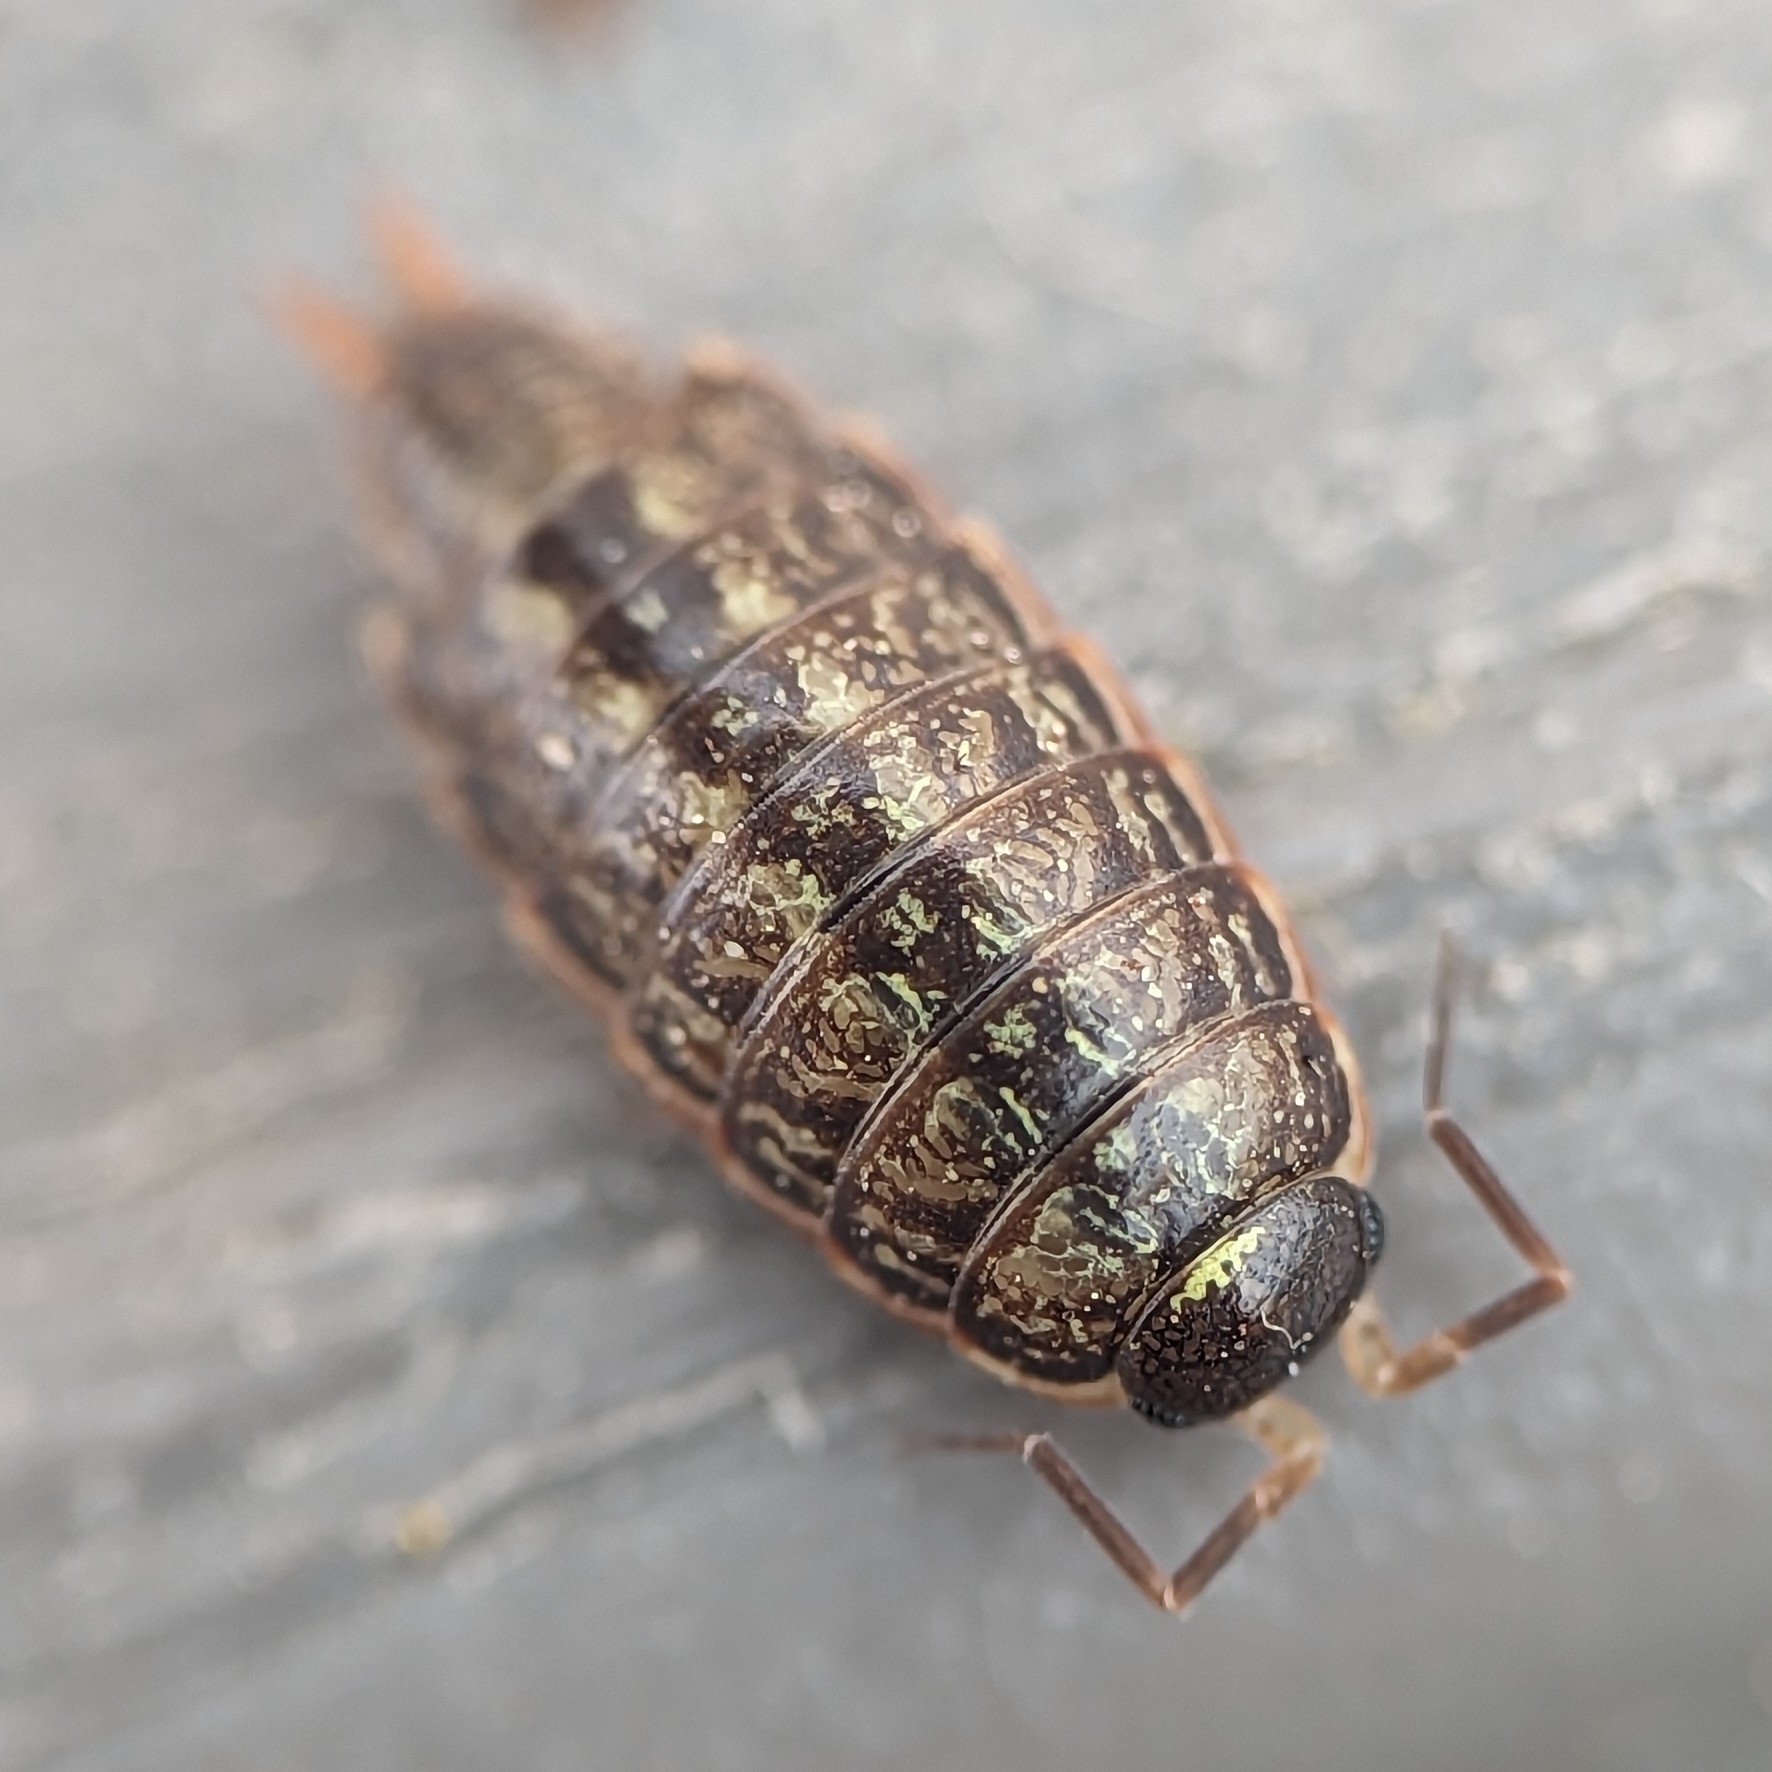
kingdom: Animalia
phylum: Arthropoda
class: Malacostraca
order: Isopoda
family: Philosciidae
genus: Philoscia
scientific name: Philoscia muscorum
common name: Common striped woodlouse
